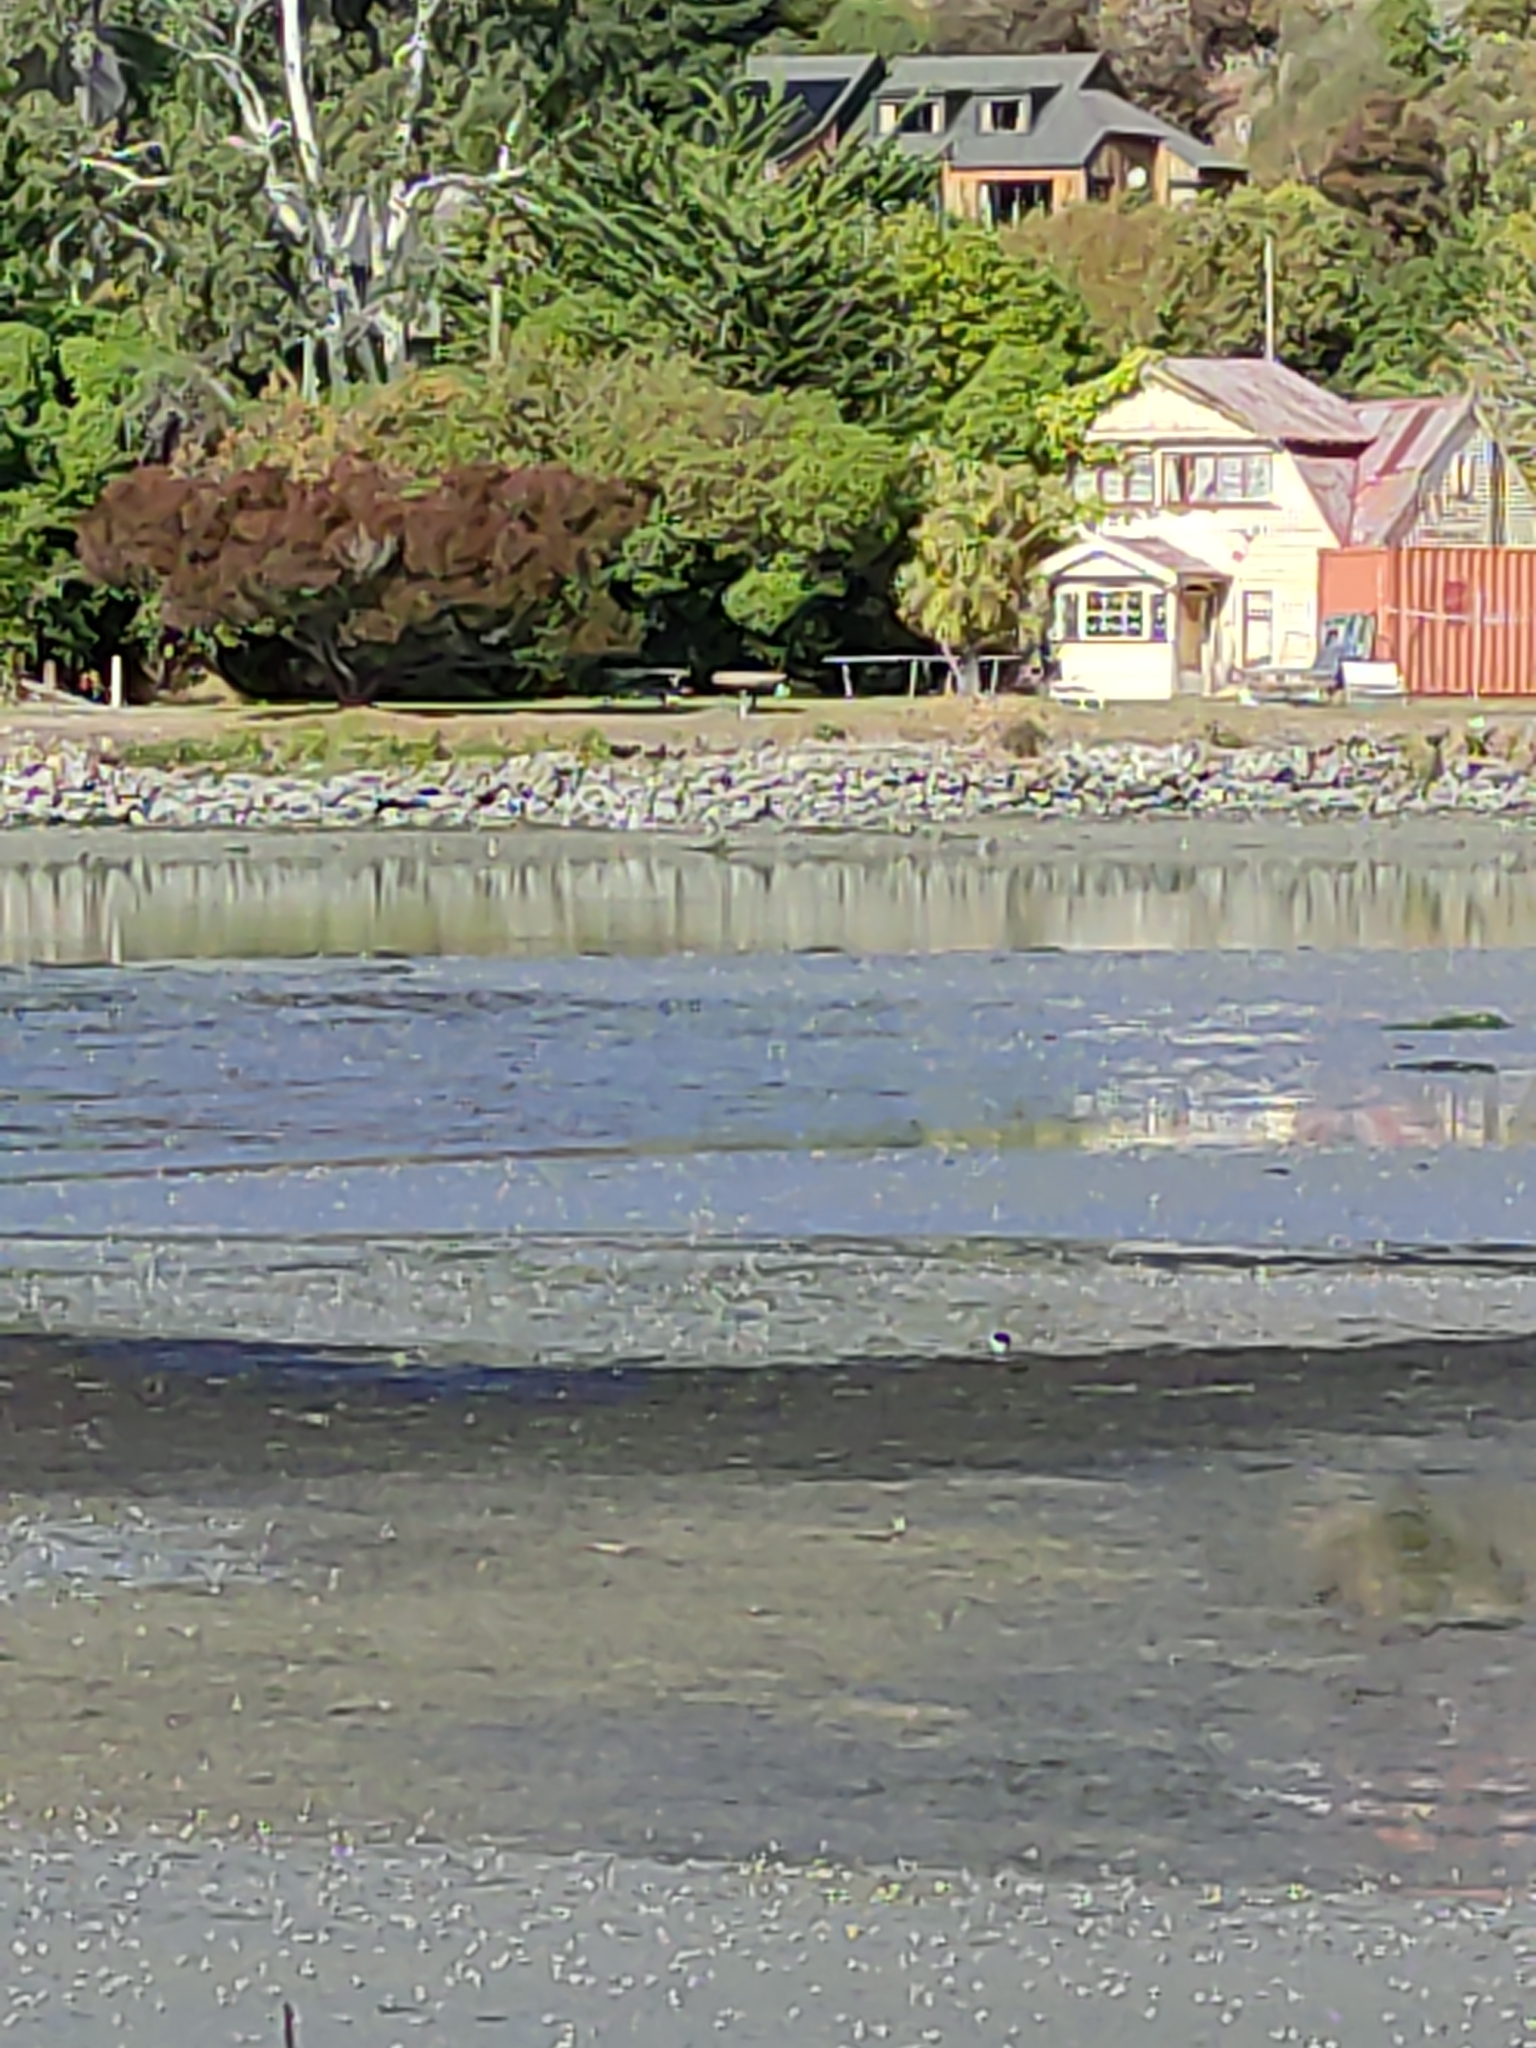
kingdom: Animalia
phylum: Chordata
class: Aves
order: Charadriiformes
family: Haematopodidae
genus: Haematopus
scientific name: Haematopus finschi
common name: South island oystercatcher
